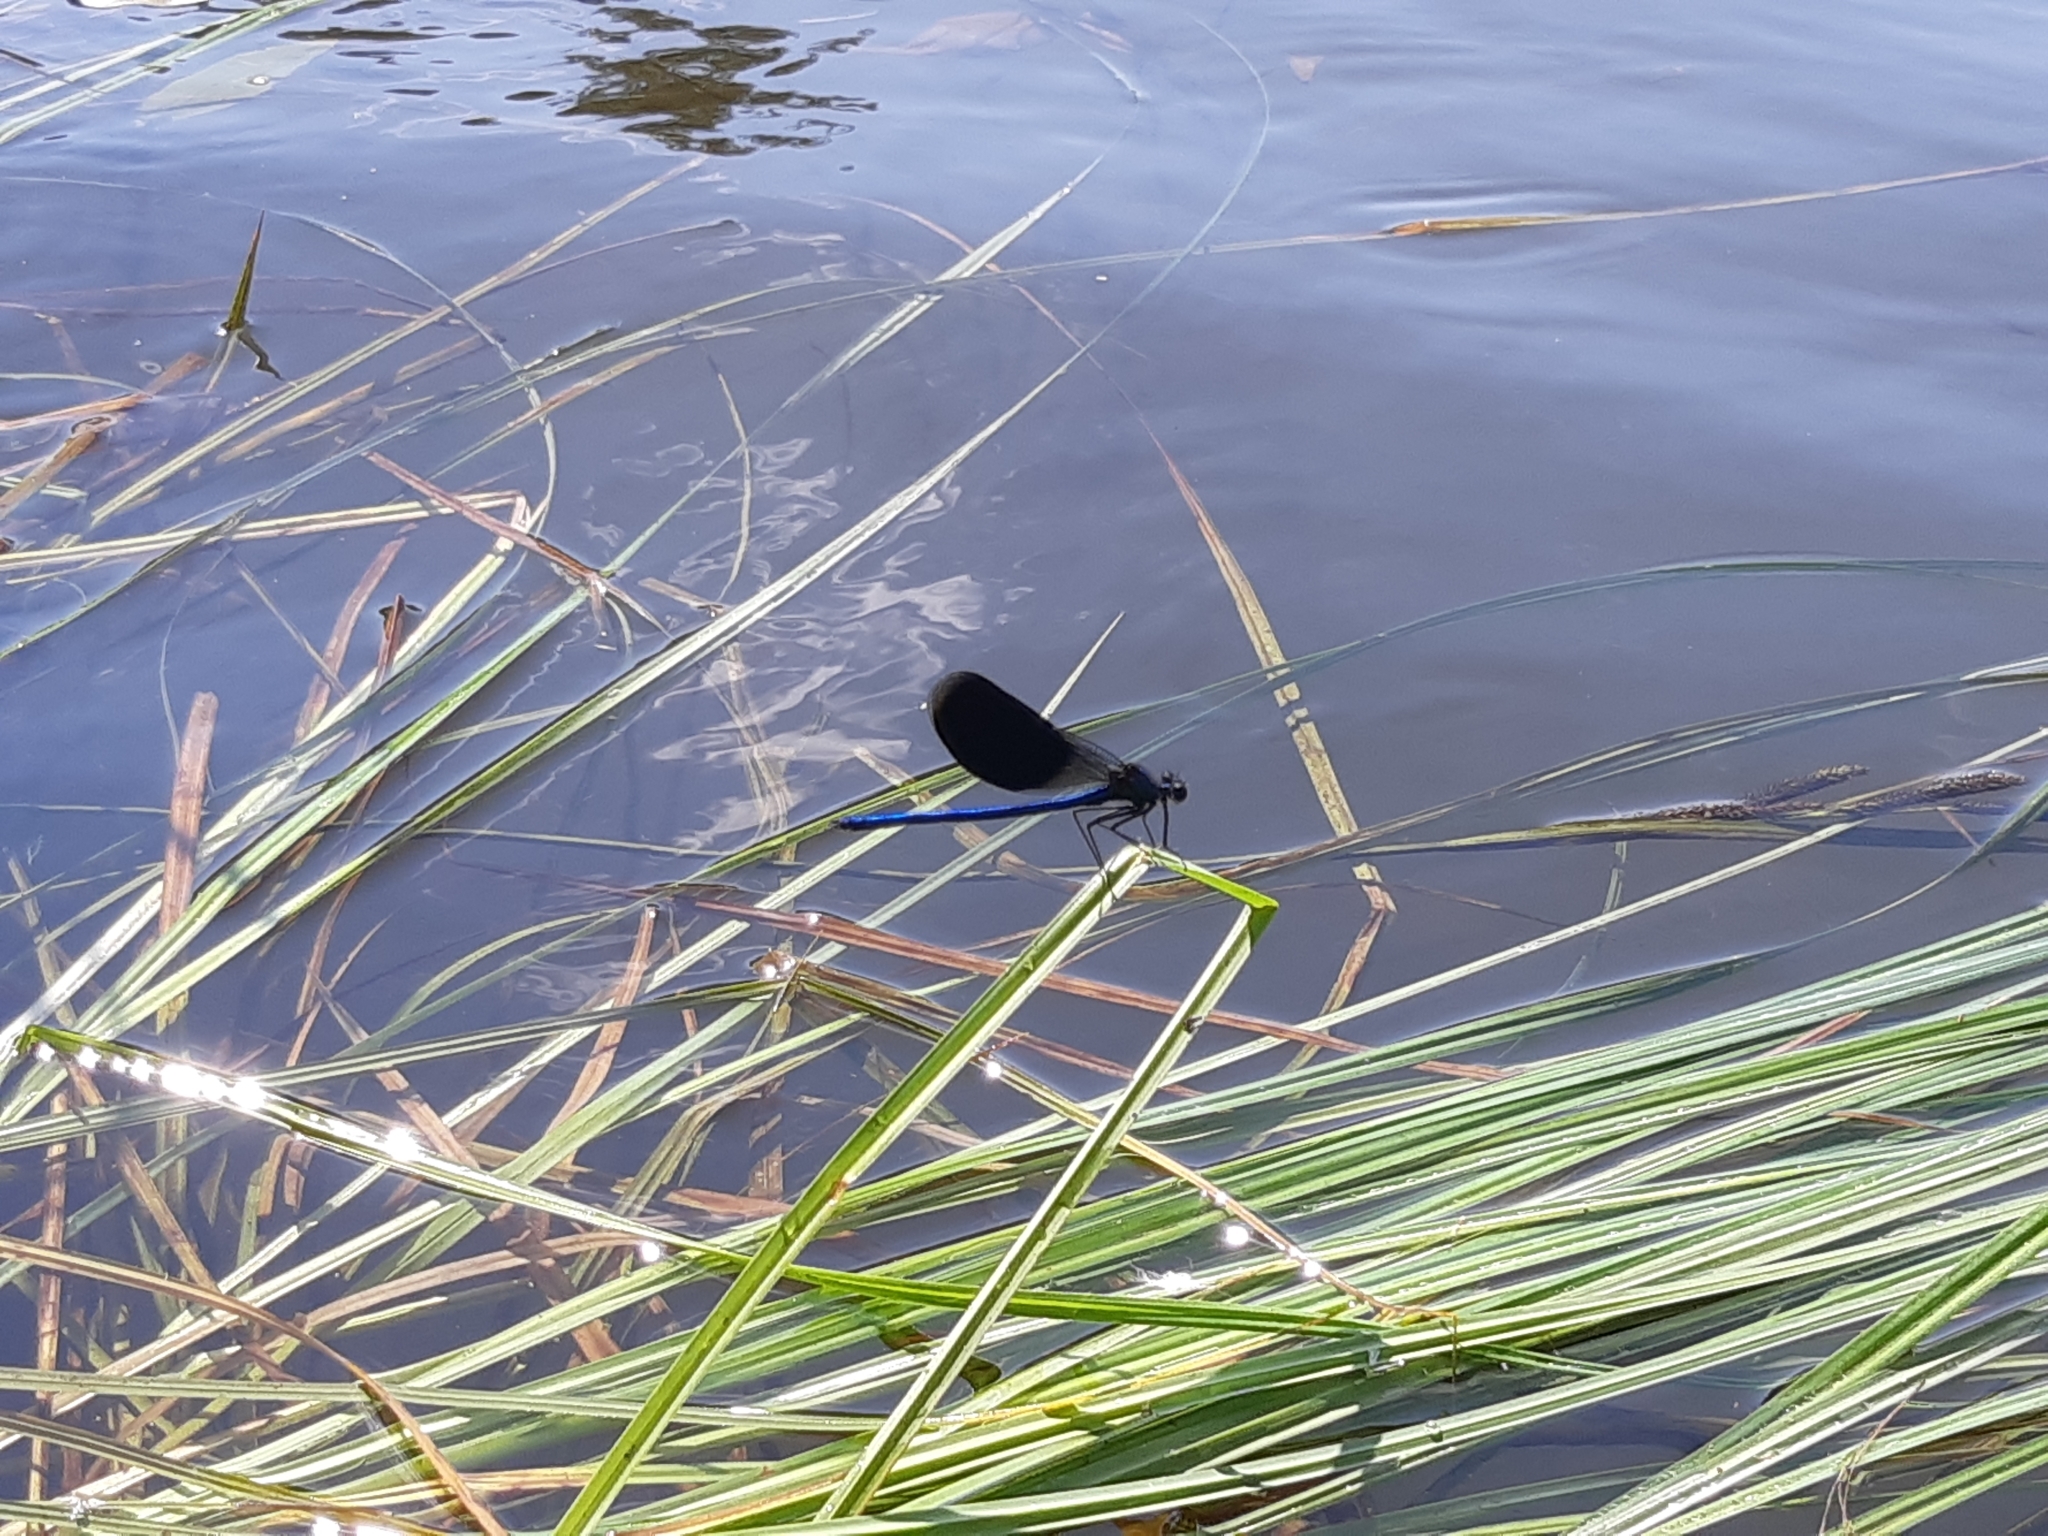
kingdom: Animalia
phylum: Arthropoda
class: Insecta
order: Odonata
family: Calopterygidae
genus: Calopteryx
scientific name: Calopteryx splendens
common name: Banded demoiselle
